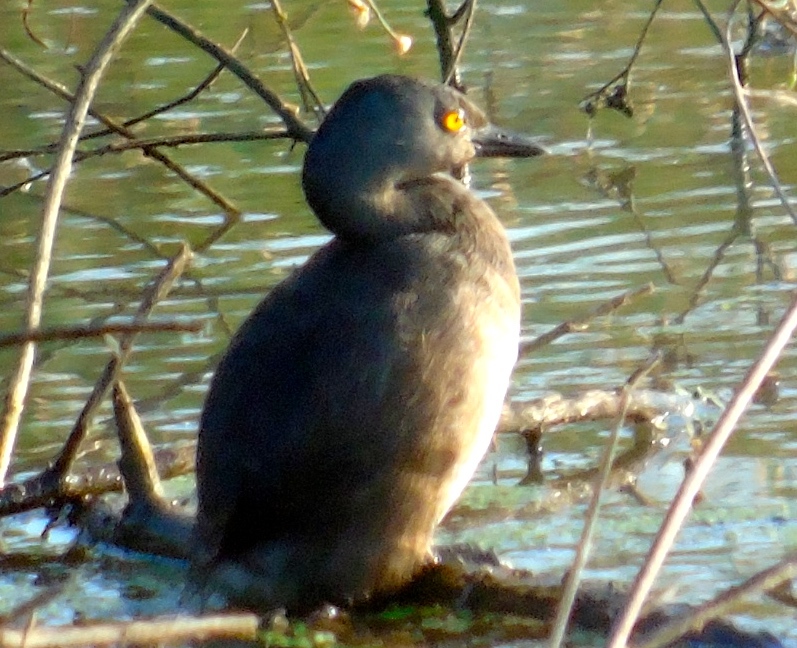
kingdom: Animalia
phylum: Chordata
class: Aves
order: Podicipediformes
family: Podicipedidae
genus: Tachybaptus
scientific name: Tachybaptus dominicus
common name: Least grebe
